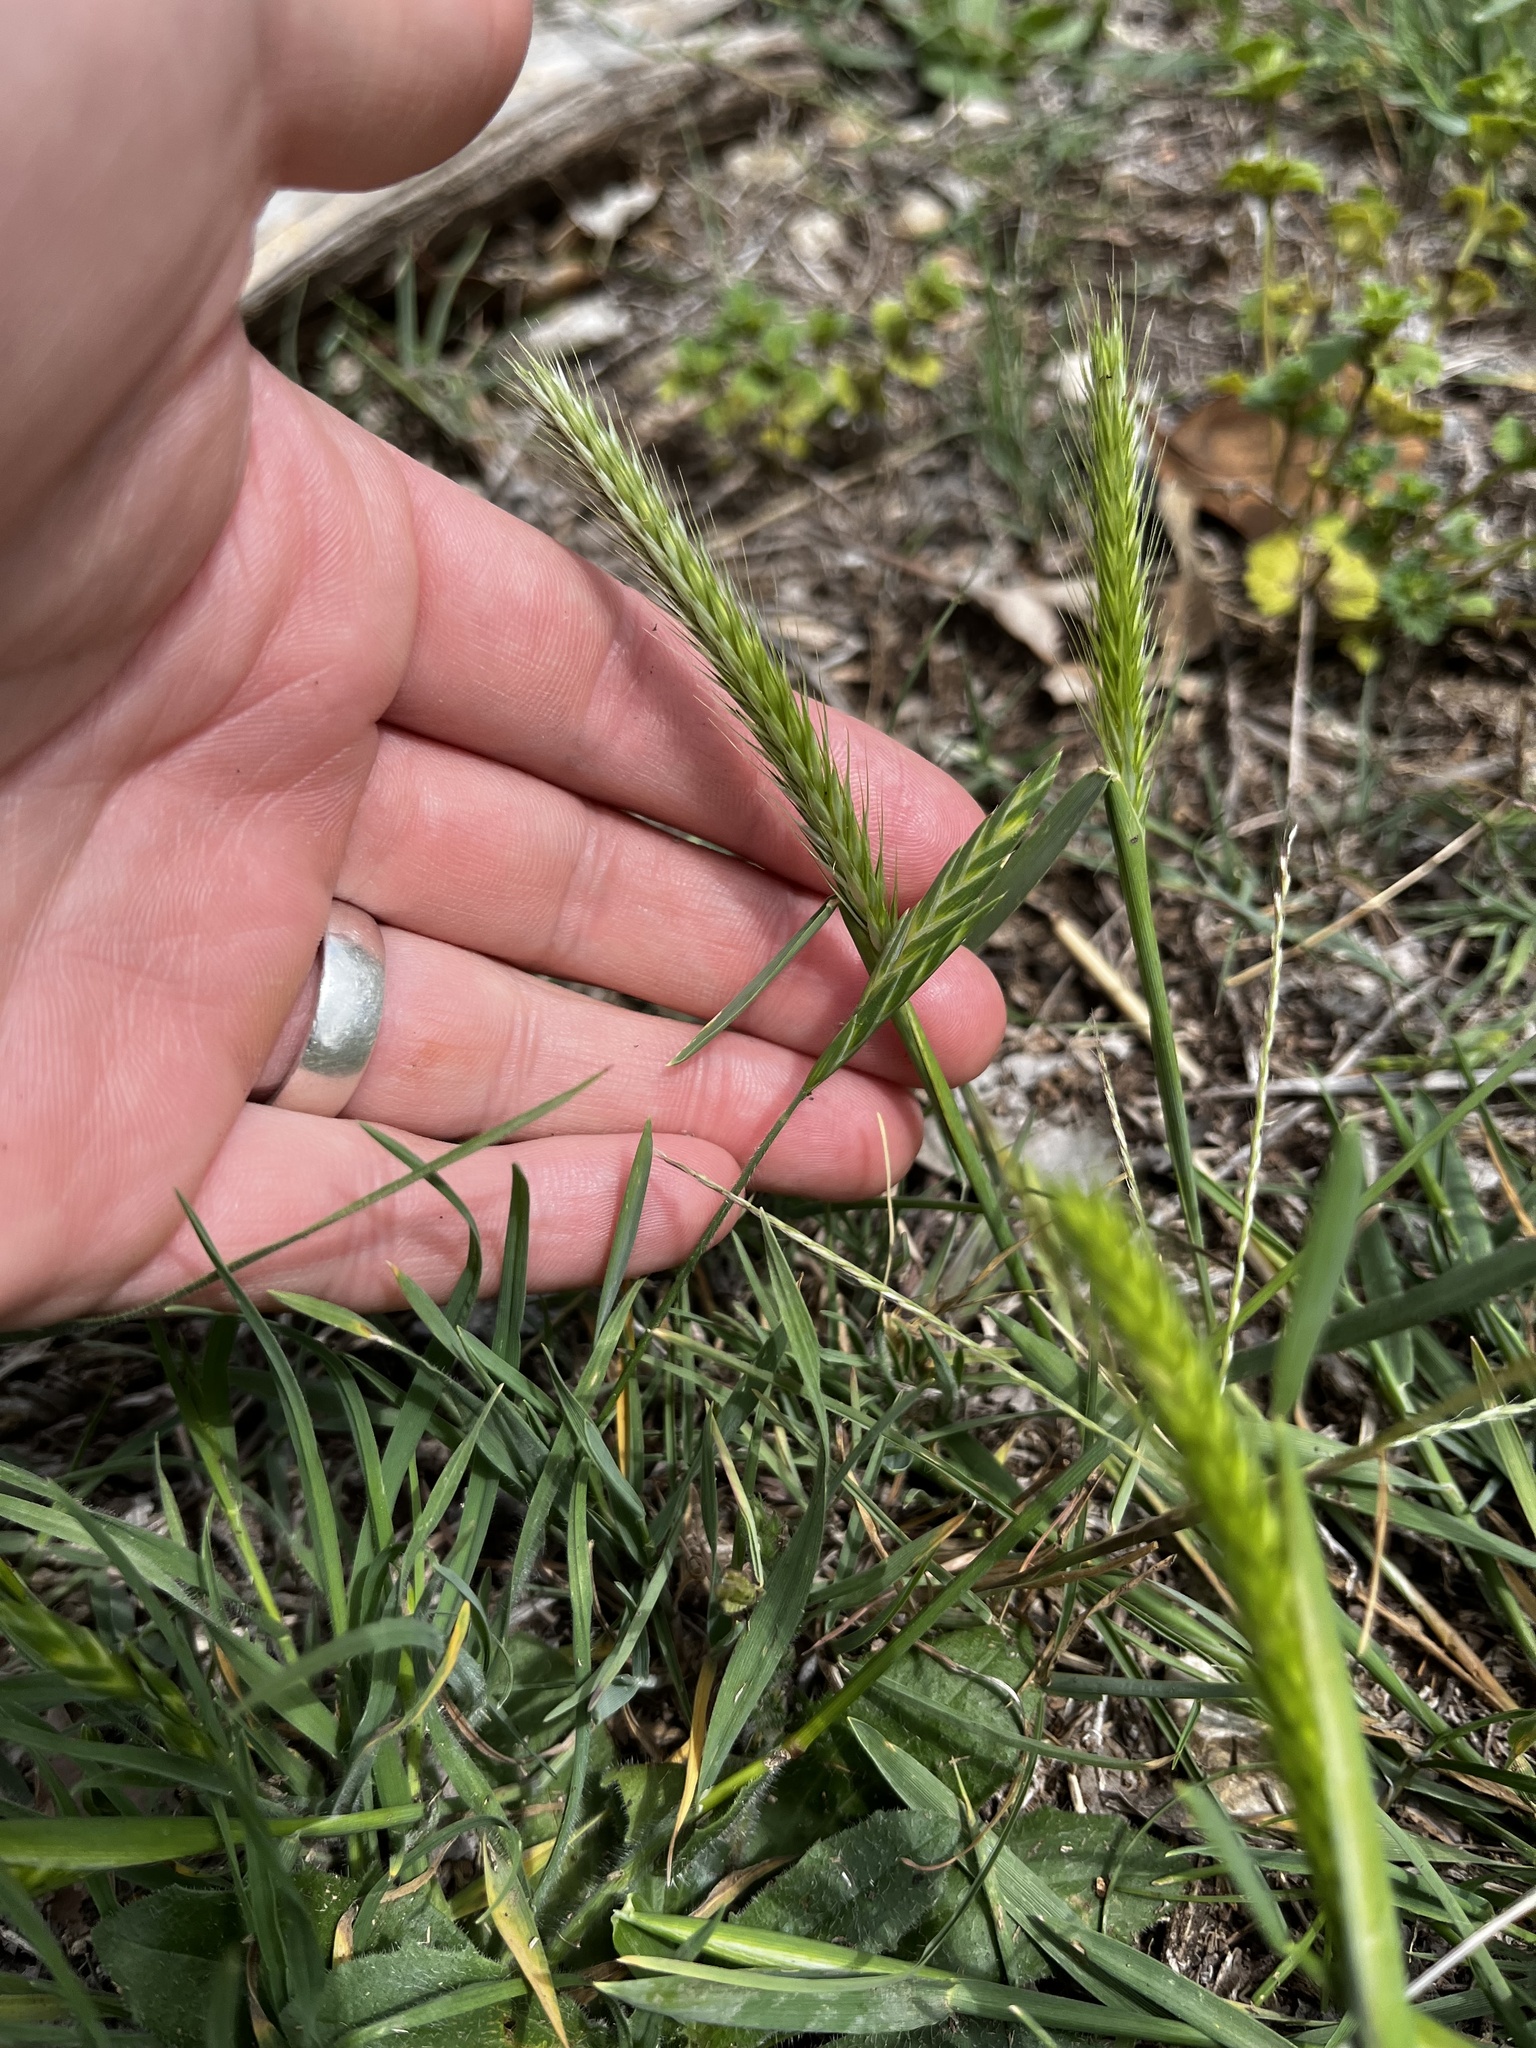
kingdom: Plantae
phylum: Tracheophyta
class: Liliopsida
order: Poales
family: Poaceae
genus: Hordeum
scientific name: Hordeum pusillum
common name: Little barley
